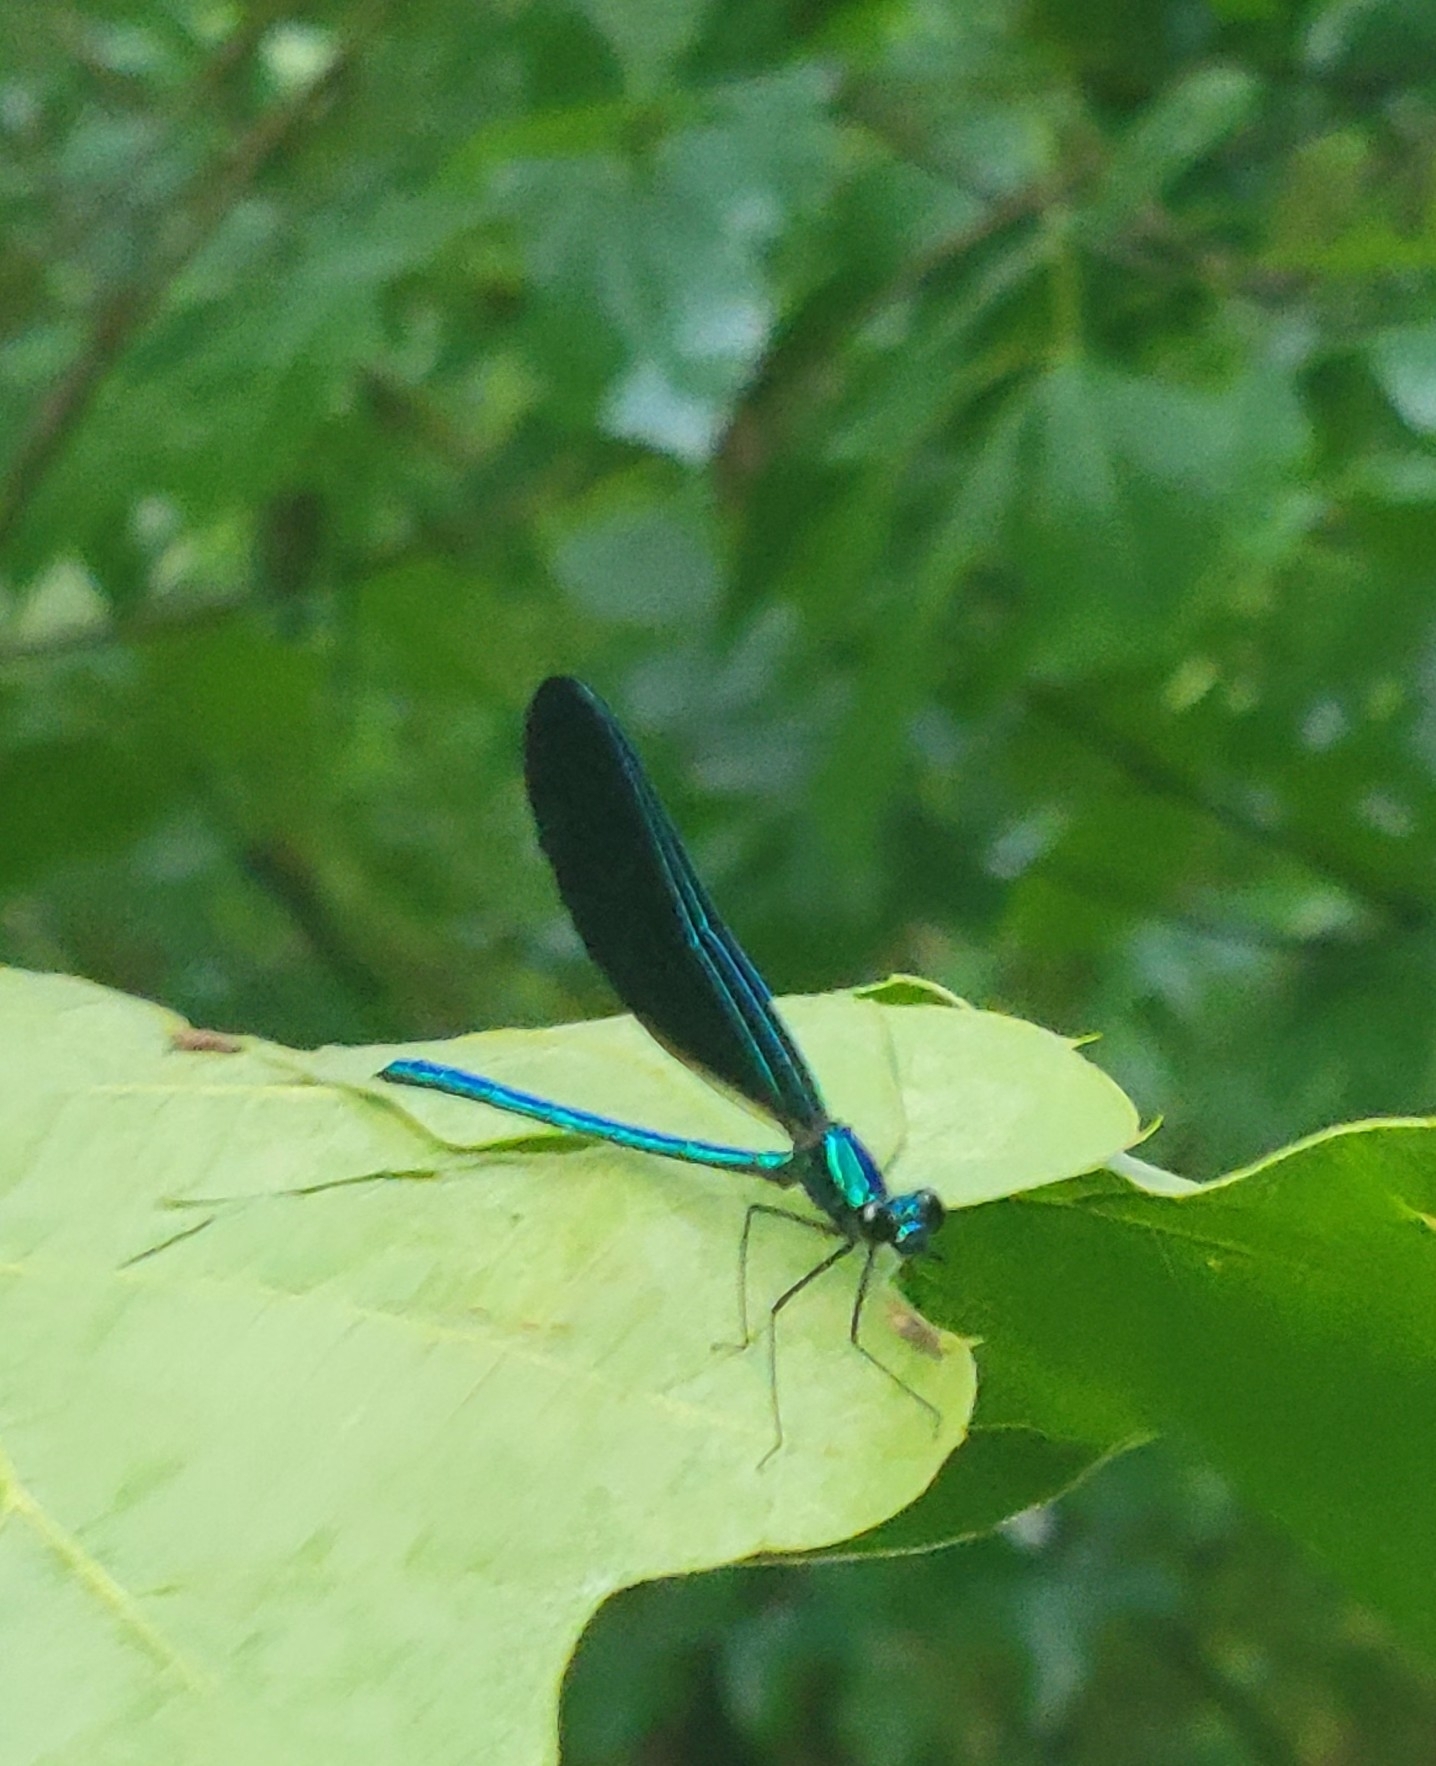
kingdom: Animalia
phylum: Arthropoda
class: Insecta
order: Odonata
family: Calopterygidae
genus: Calopteryx
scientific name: Calopteryx maculata
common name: Ebony jewelwing
